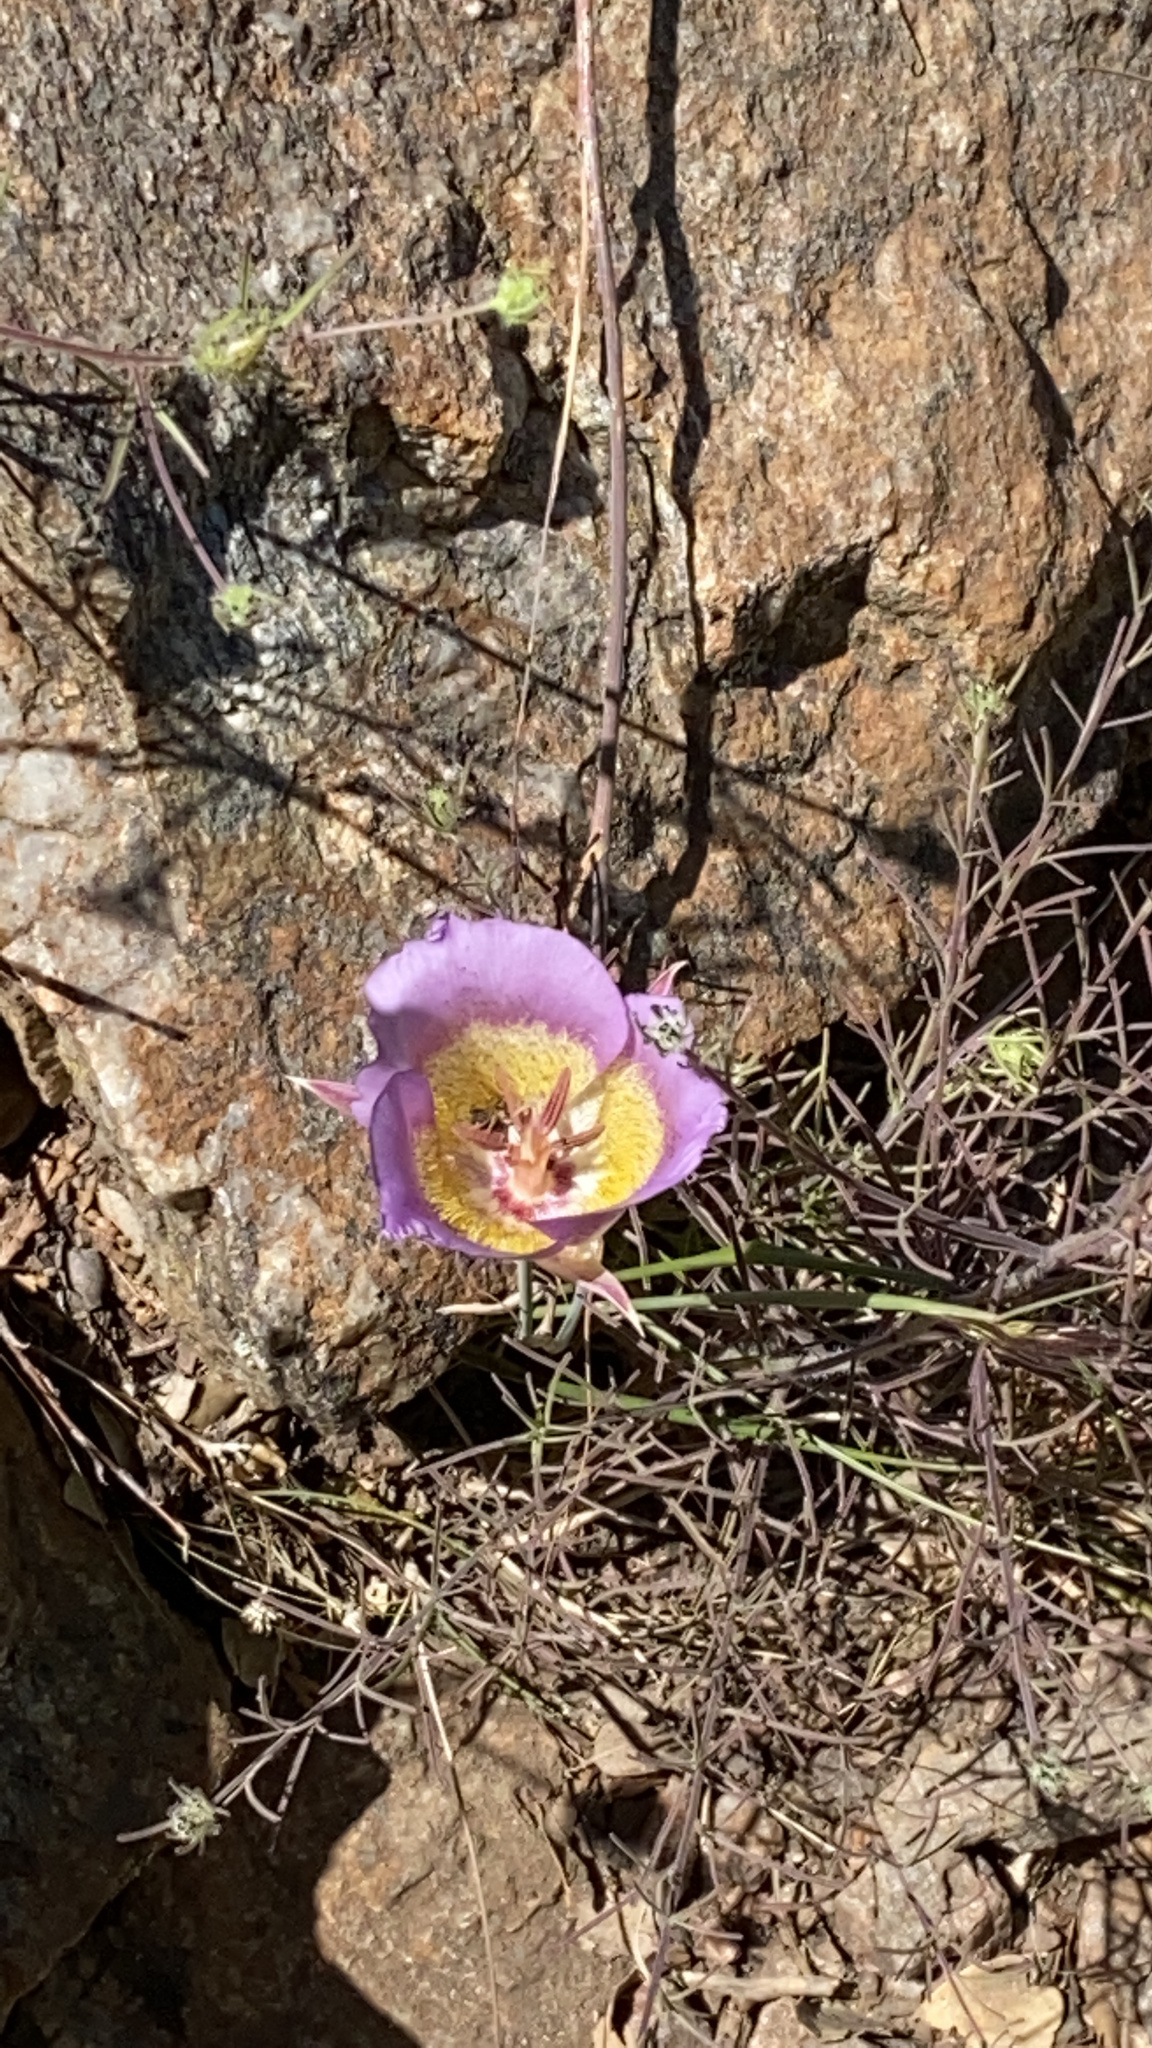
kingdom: Plantae
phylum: Tracheophyta
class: Liliopsida
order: Liliales
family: Liliaceae
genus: Calochortus
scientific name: Calochortus plummerae
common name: Plummer's mariposa-lily
